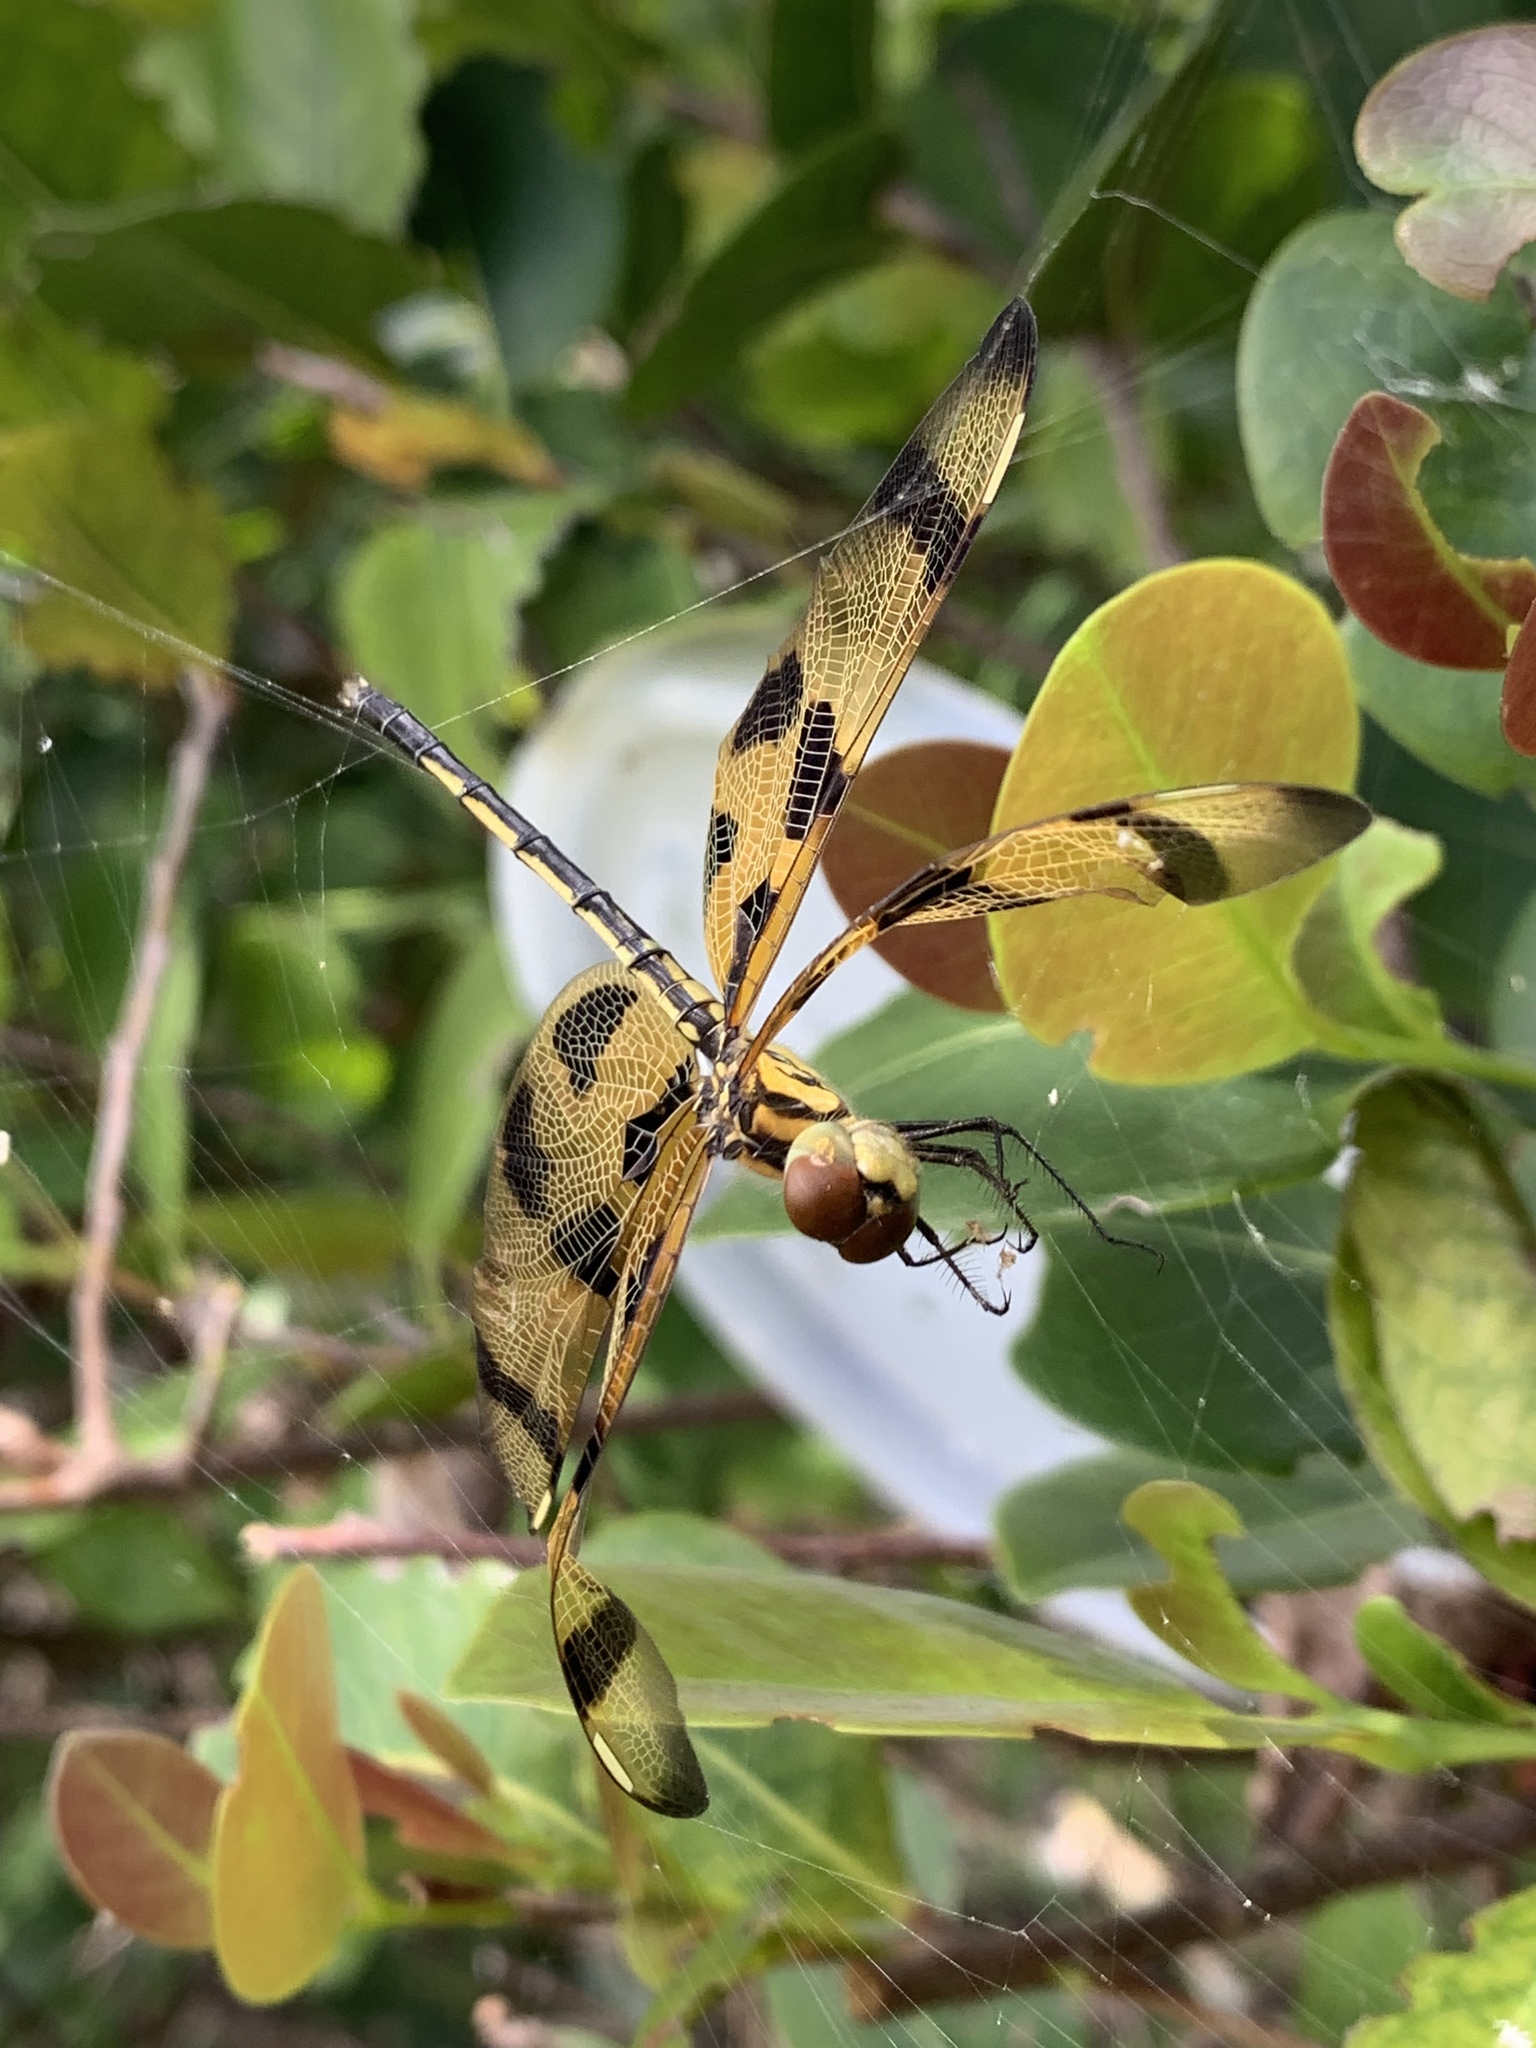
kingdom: Animalia
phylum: Arthropoda
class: Insecta
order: Odonata
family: Libellulidae
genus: Celithemis
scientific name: Celithemis eponina
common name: Halloween pennant
